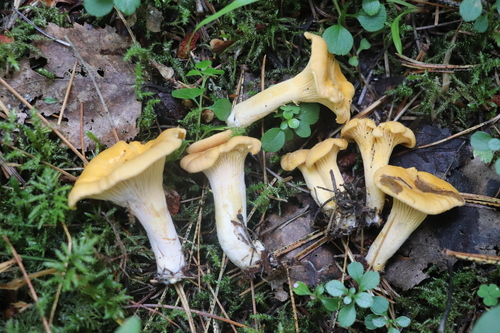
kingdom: Fungi
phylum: Basidiomycota
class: Agaricomycetes
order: Cantharellales
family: Hydnaceae
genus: Cantharellus
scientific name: Cantharellus cibarius
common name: Chanterelle
